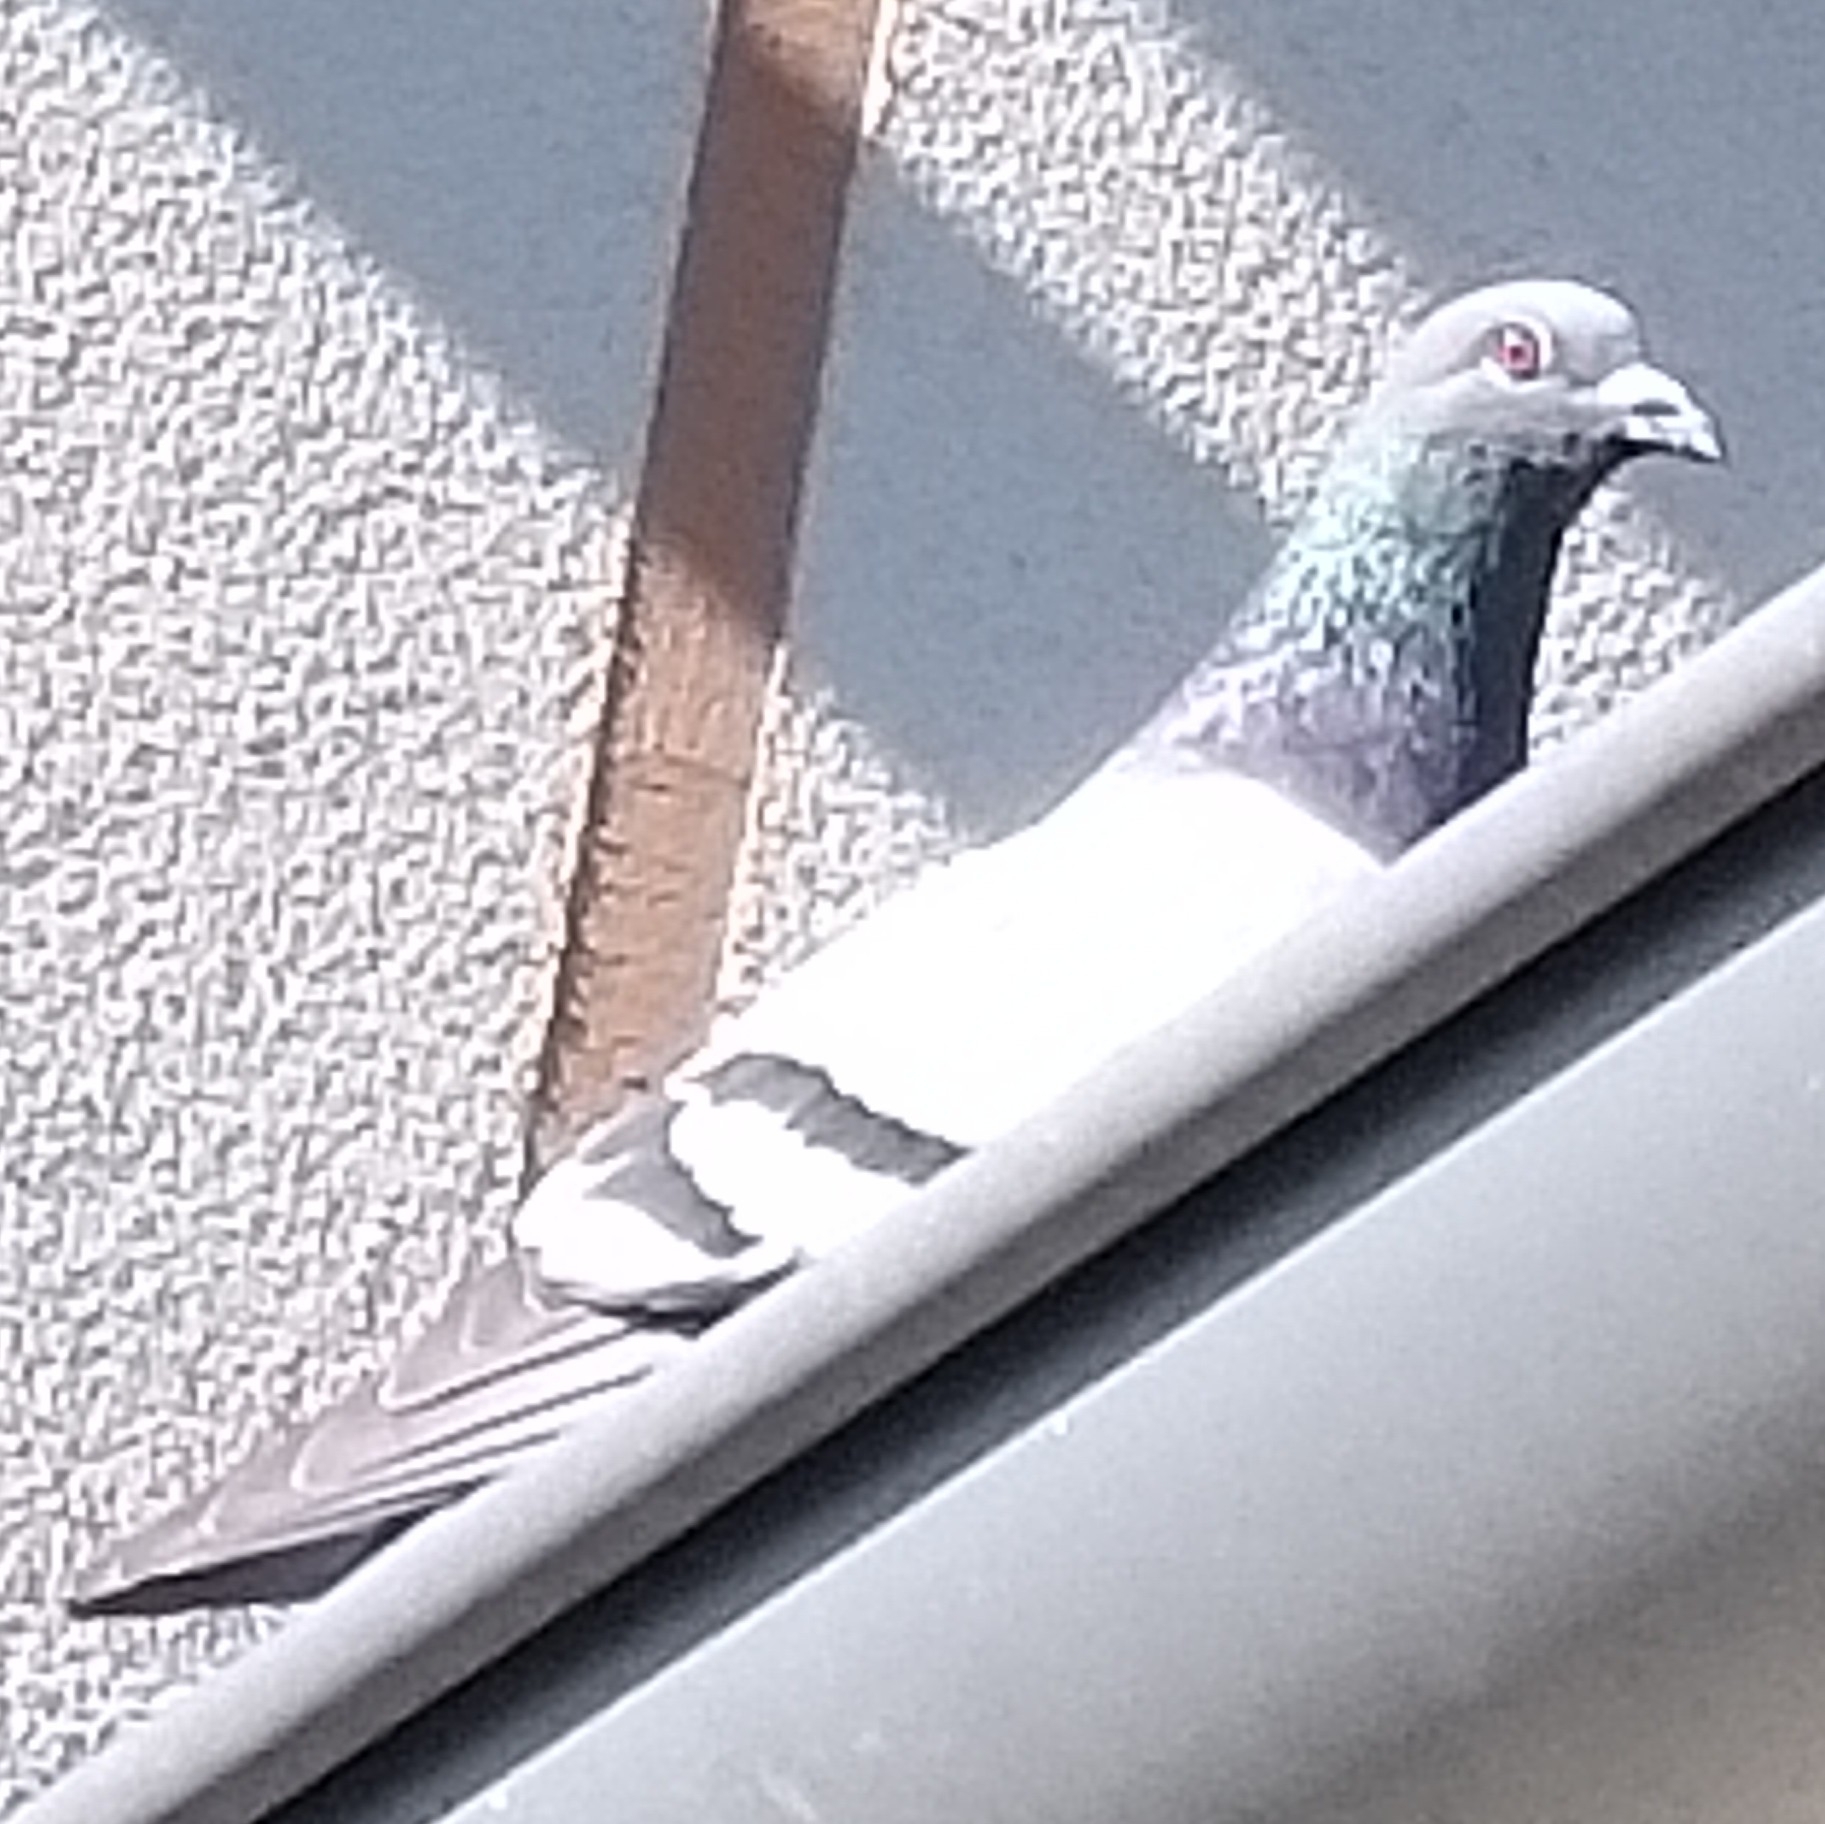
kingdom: Animalia
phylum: Chordata
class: Aves
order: Columbiformes
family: Columbidae
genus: Columba
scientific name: Columba livia
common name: Rock pigeon
